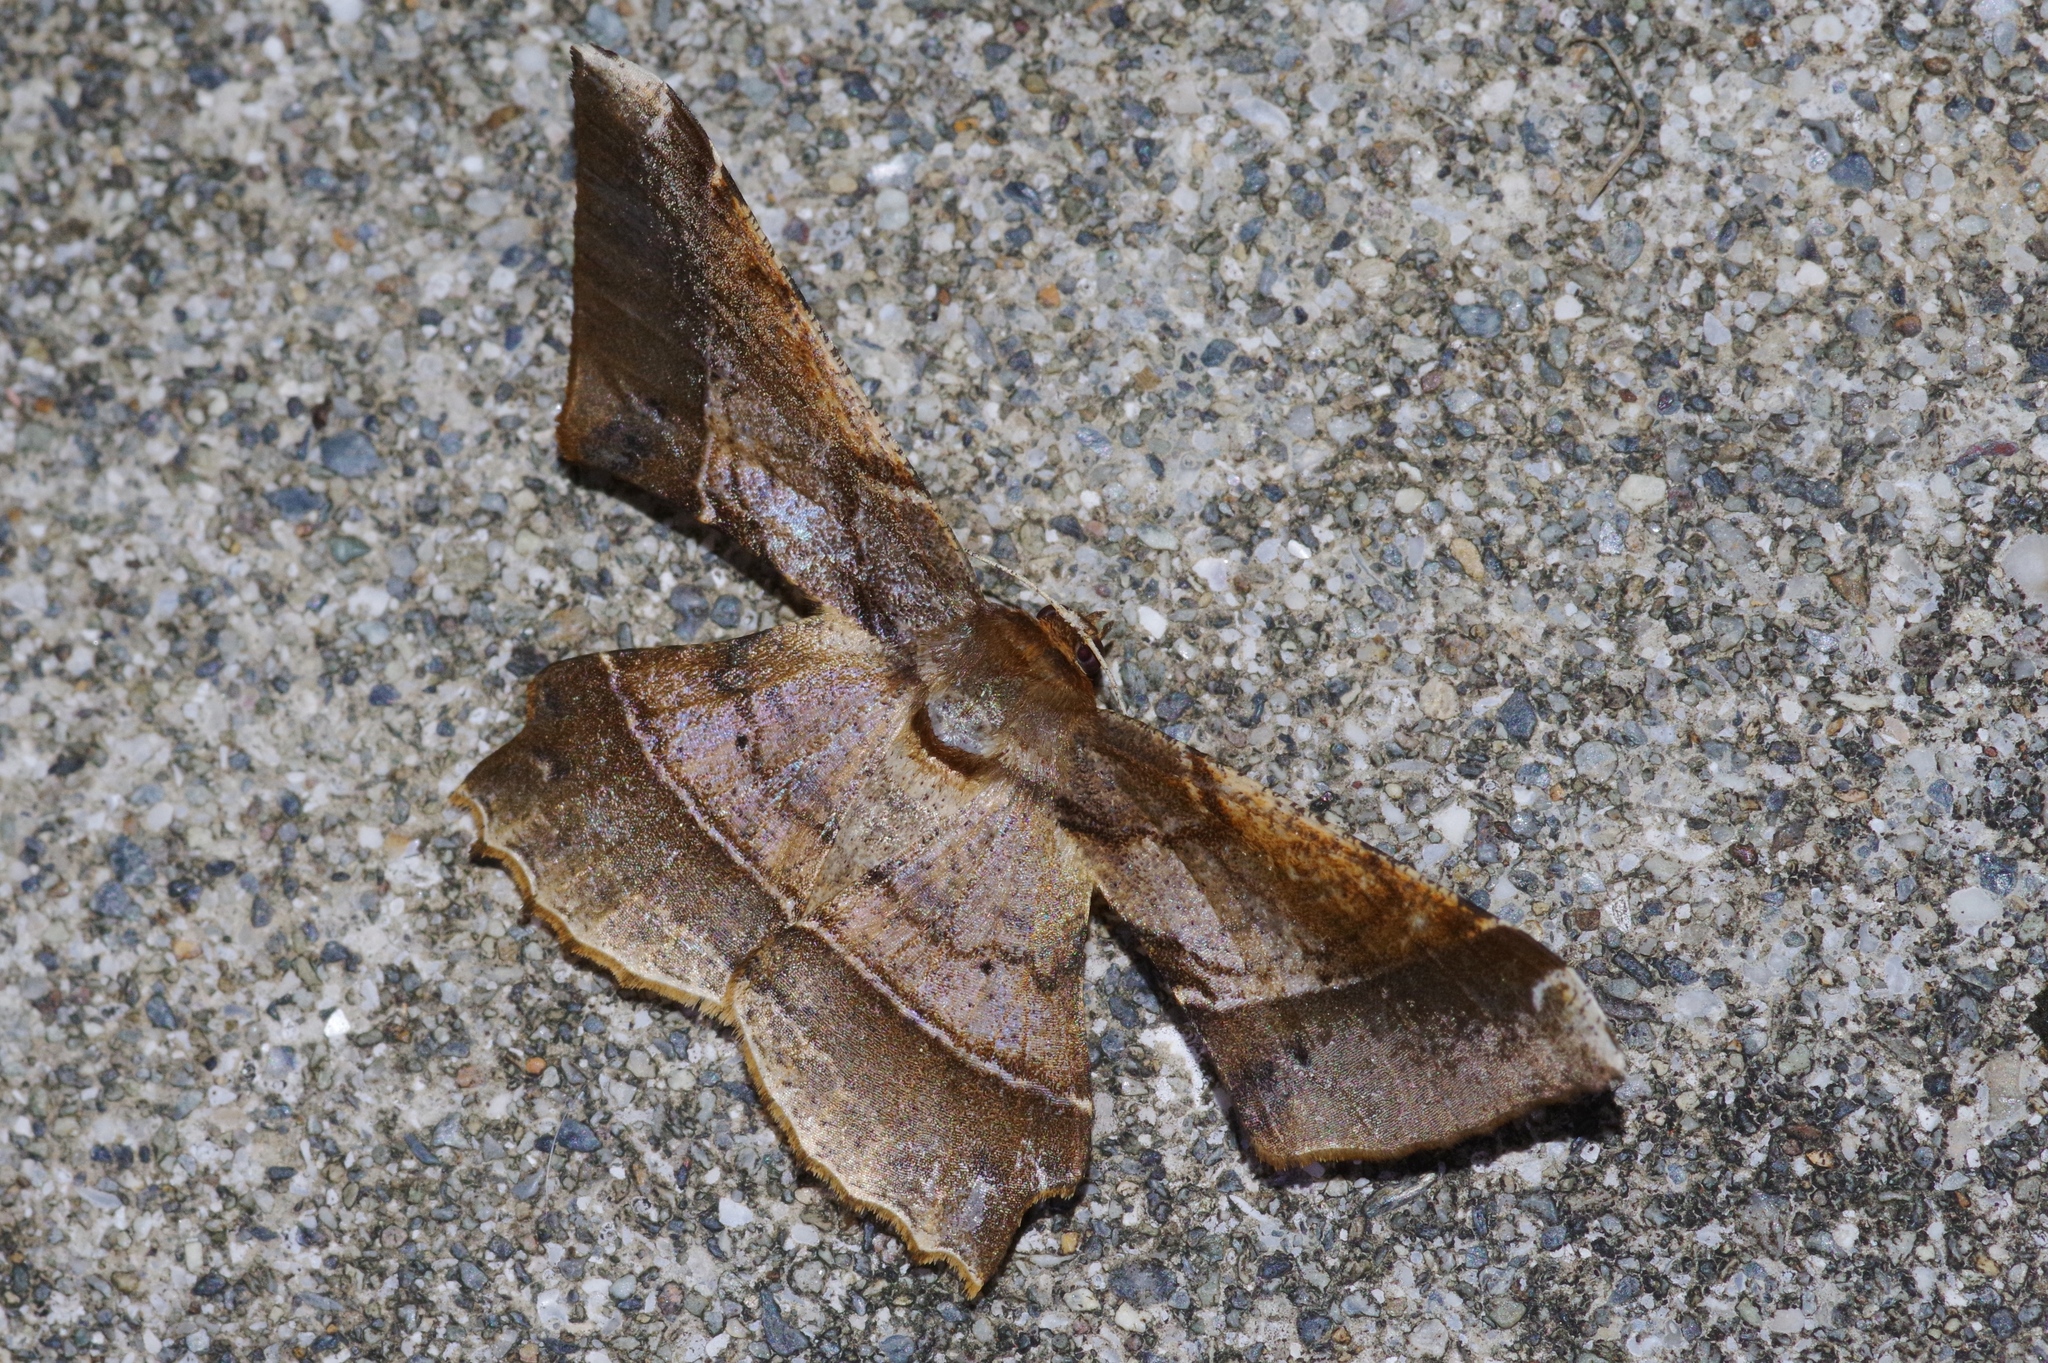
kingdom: Animalia
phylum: Arthropoda
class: Insecta
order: Lepidoptera
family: Geometridae
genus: Krananda
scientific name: Krananda latimarginaria
